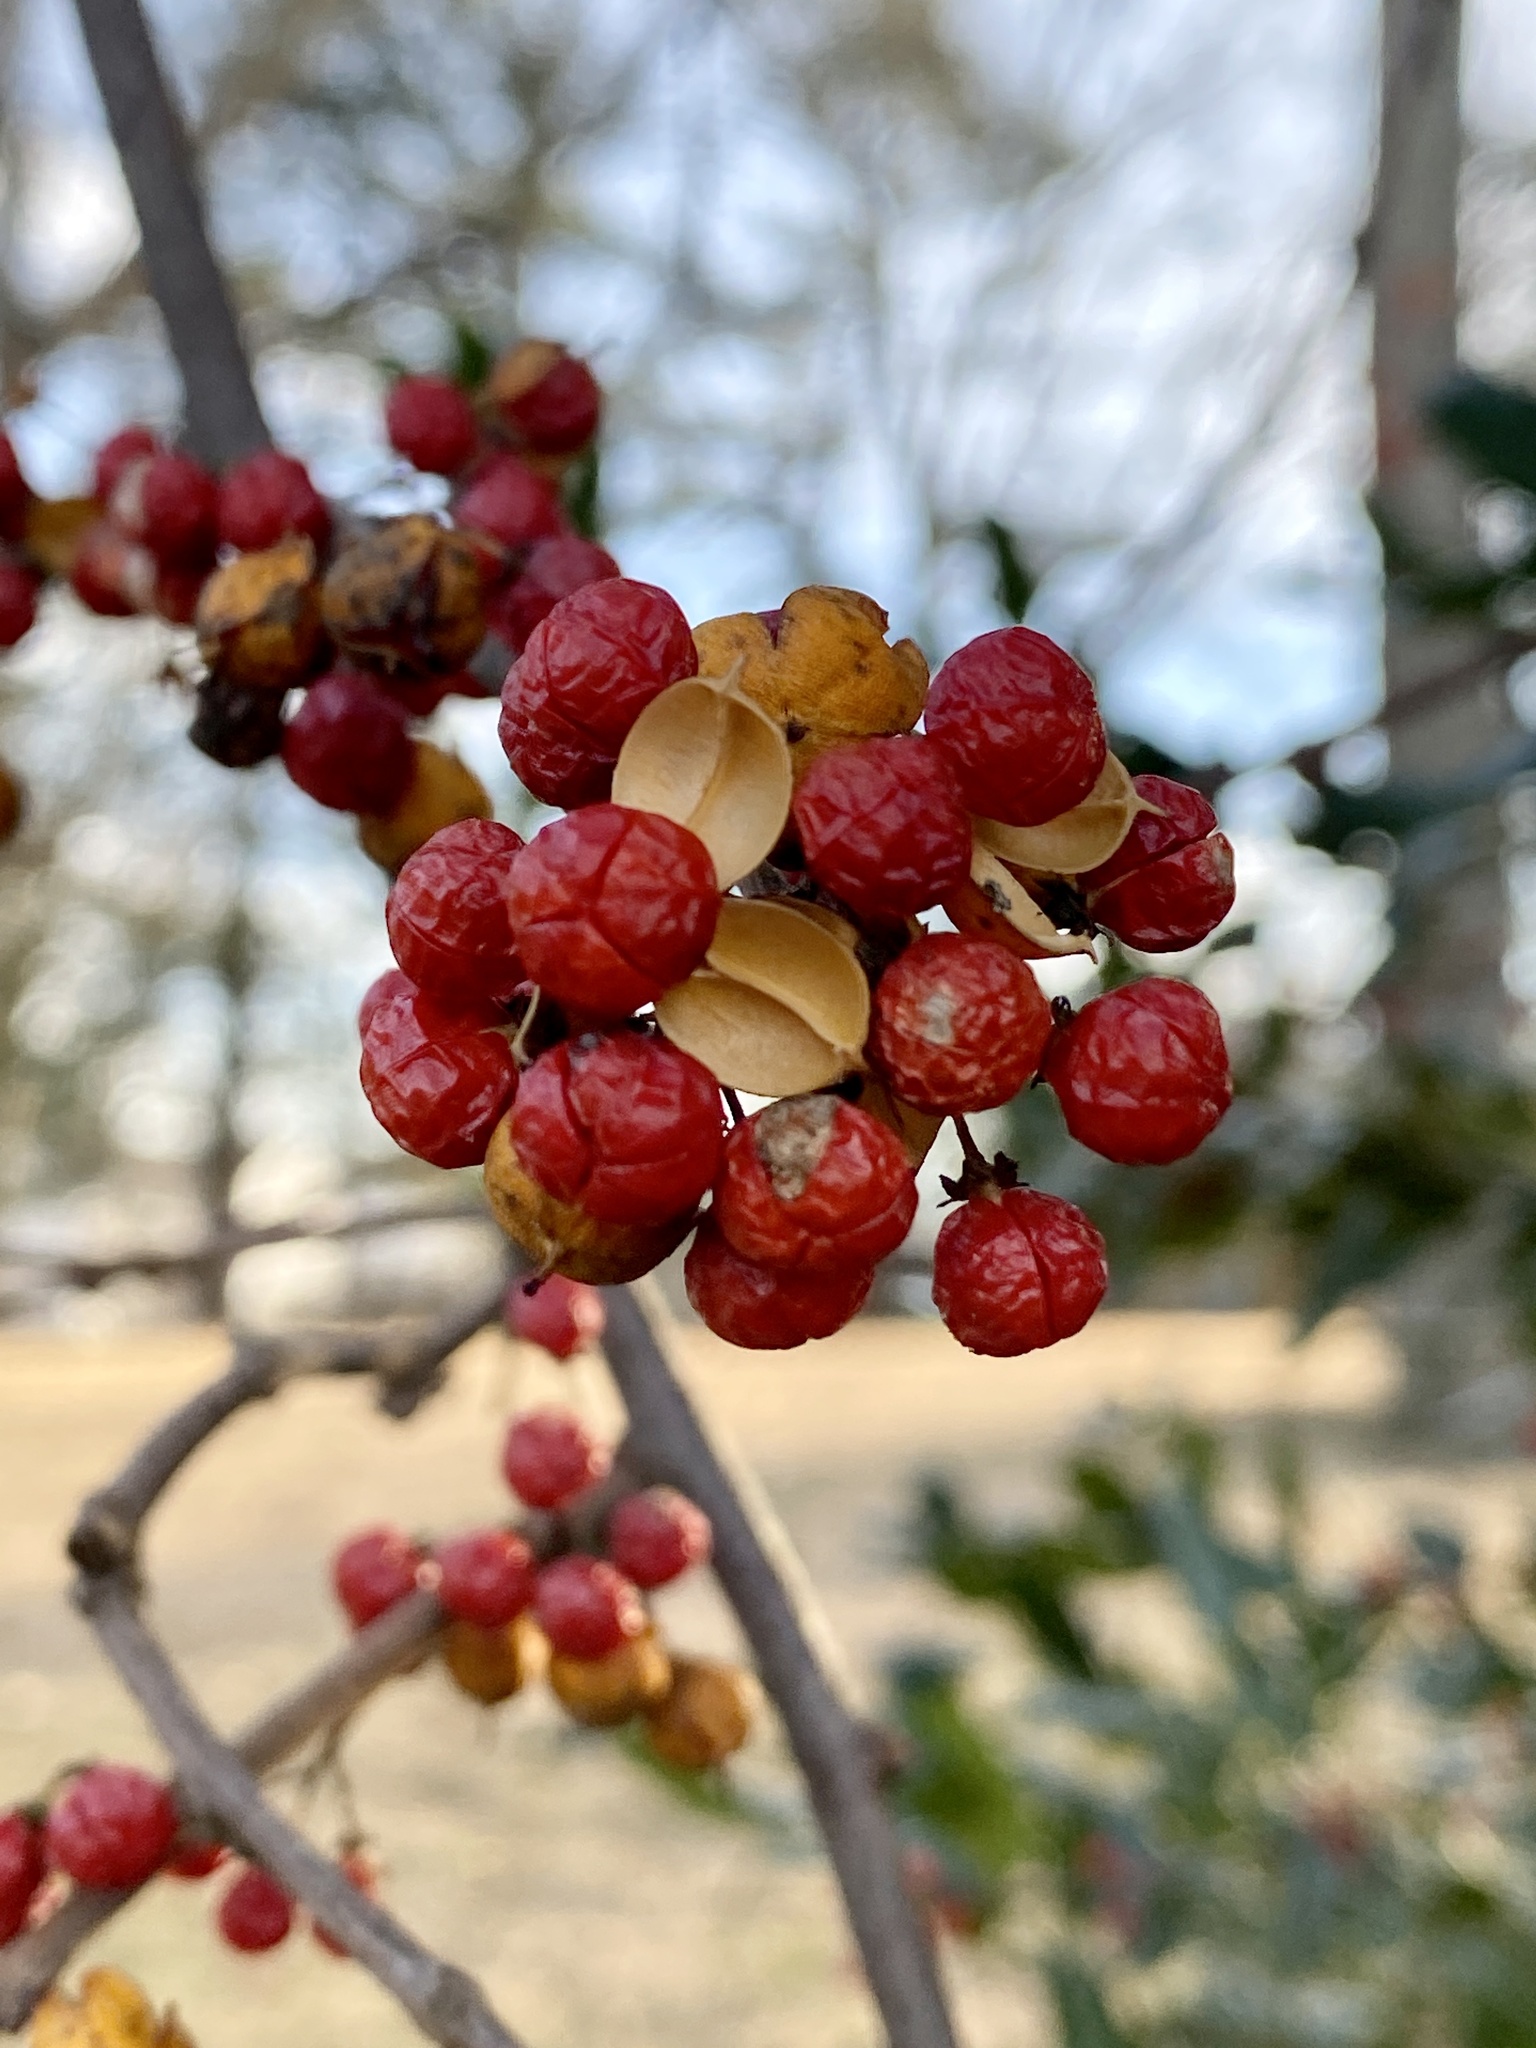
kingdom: Plantae
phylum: Tracheophyta
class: Magnoliopsida
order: Celastrales
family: Celastraceae
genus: Celastrus
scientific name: Celastrus orbiculatus
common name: Oriental bittersweet
